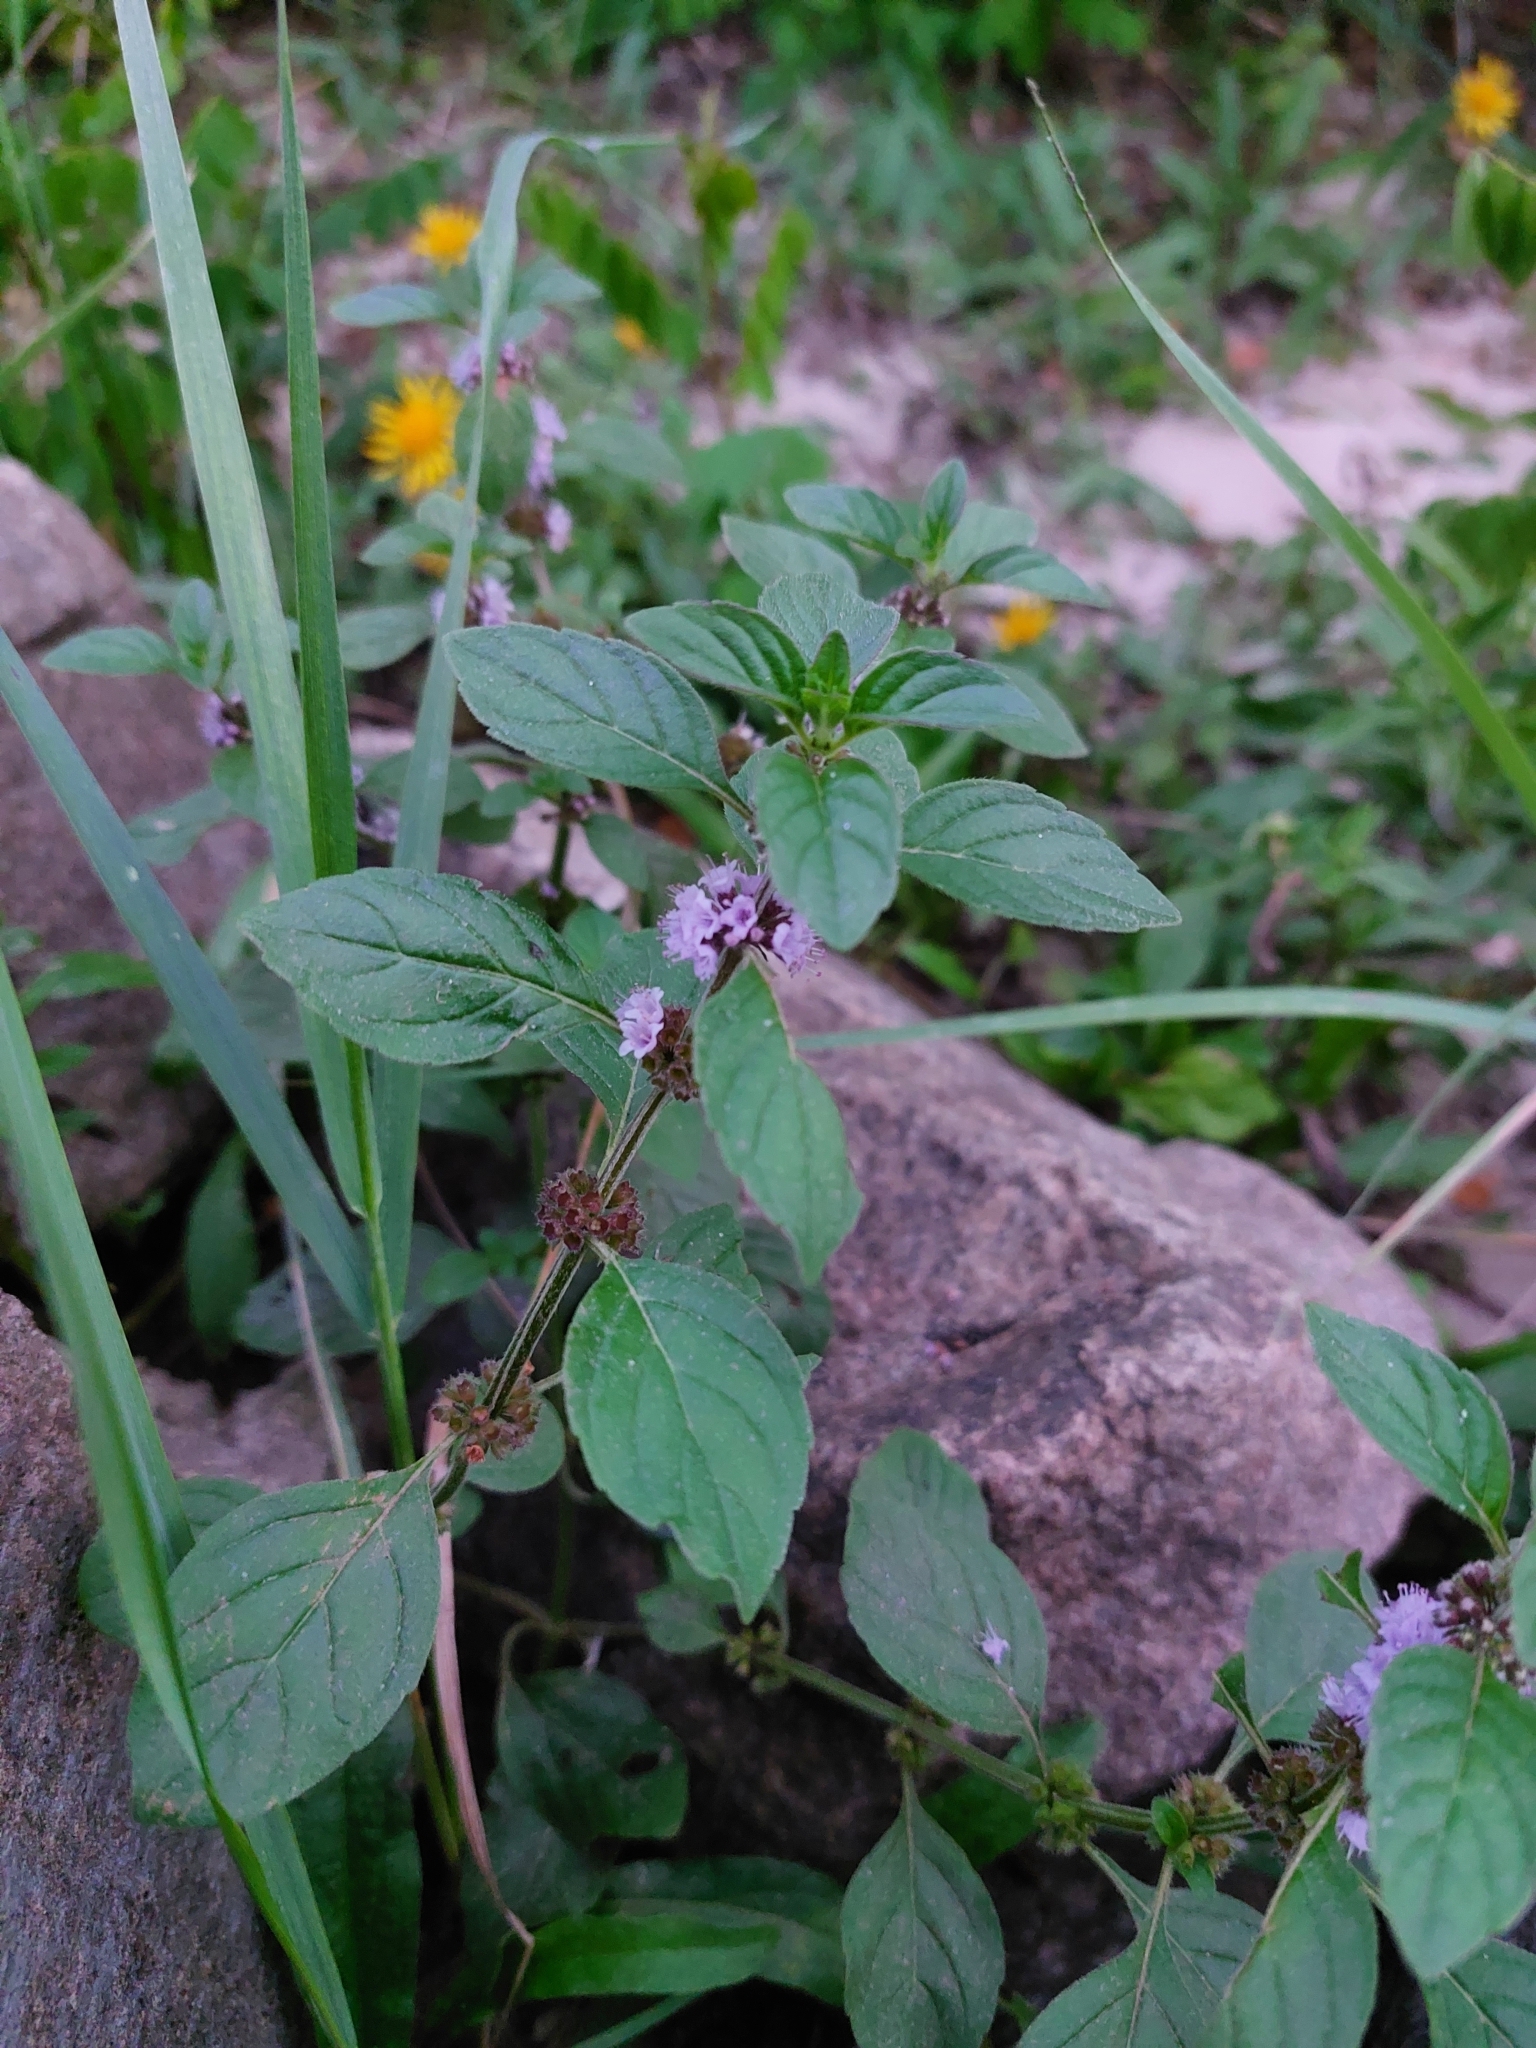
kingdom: Plantae
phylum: Tracheophyta
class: Magnoliopsida
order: Lamiales
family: Lamiaceae
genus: Mentha
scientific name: Mentha arvensis
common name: Corn mint
